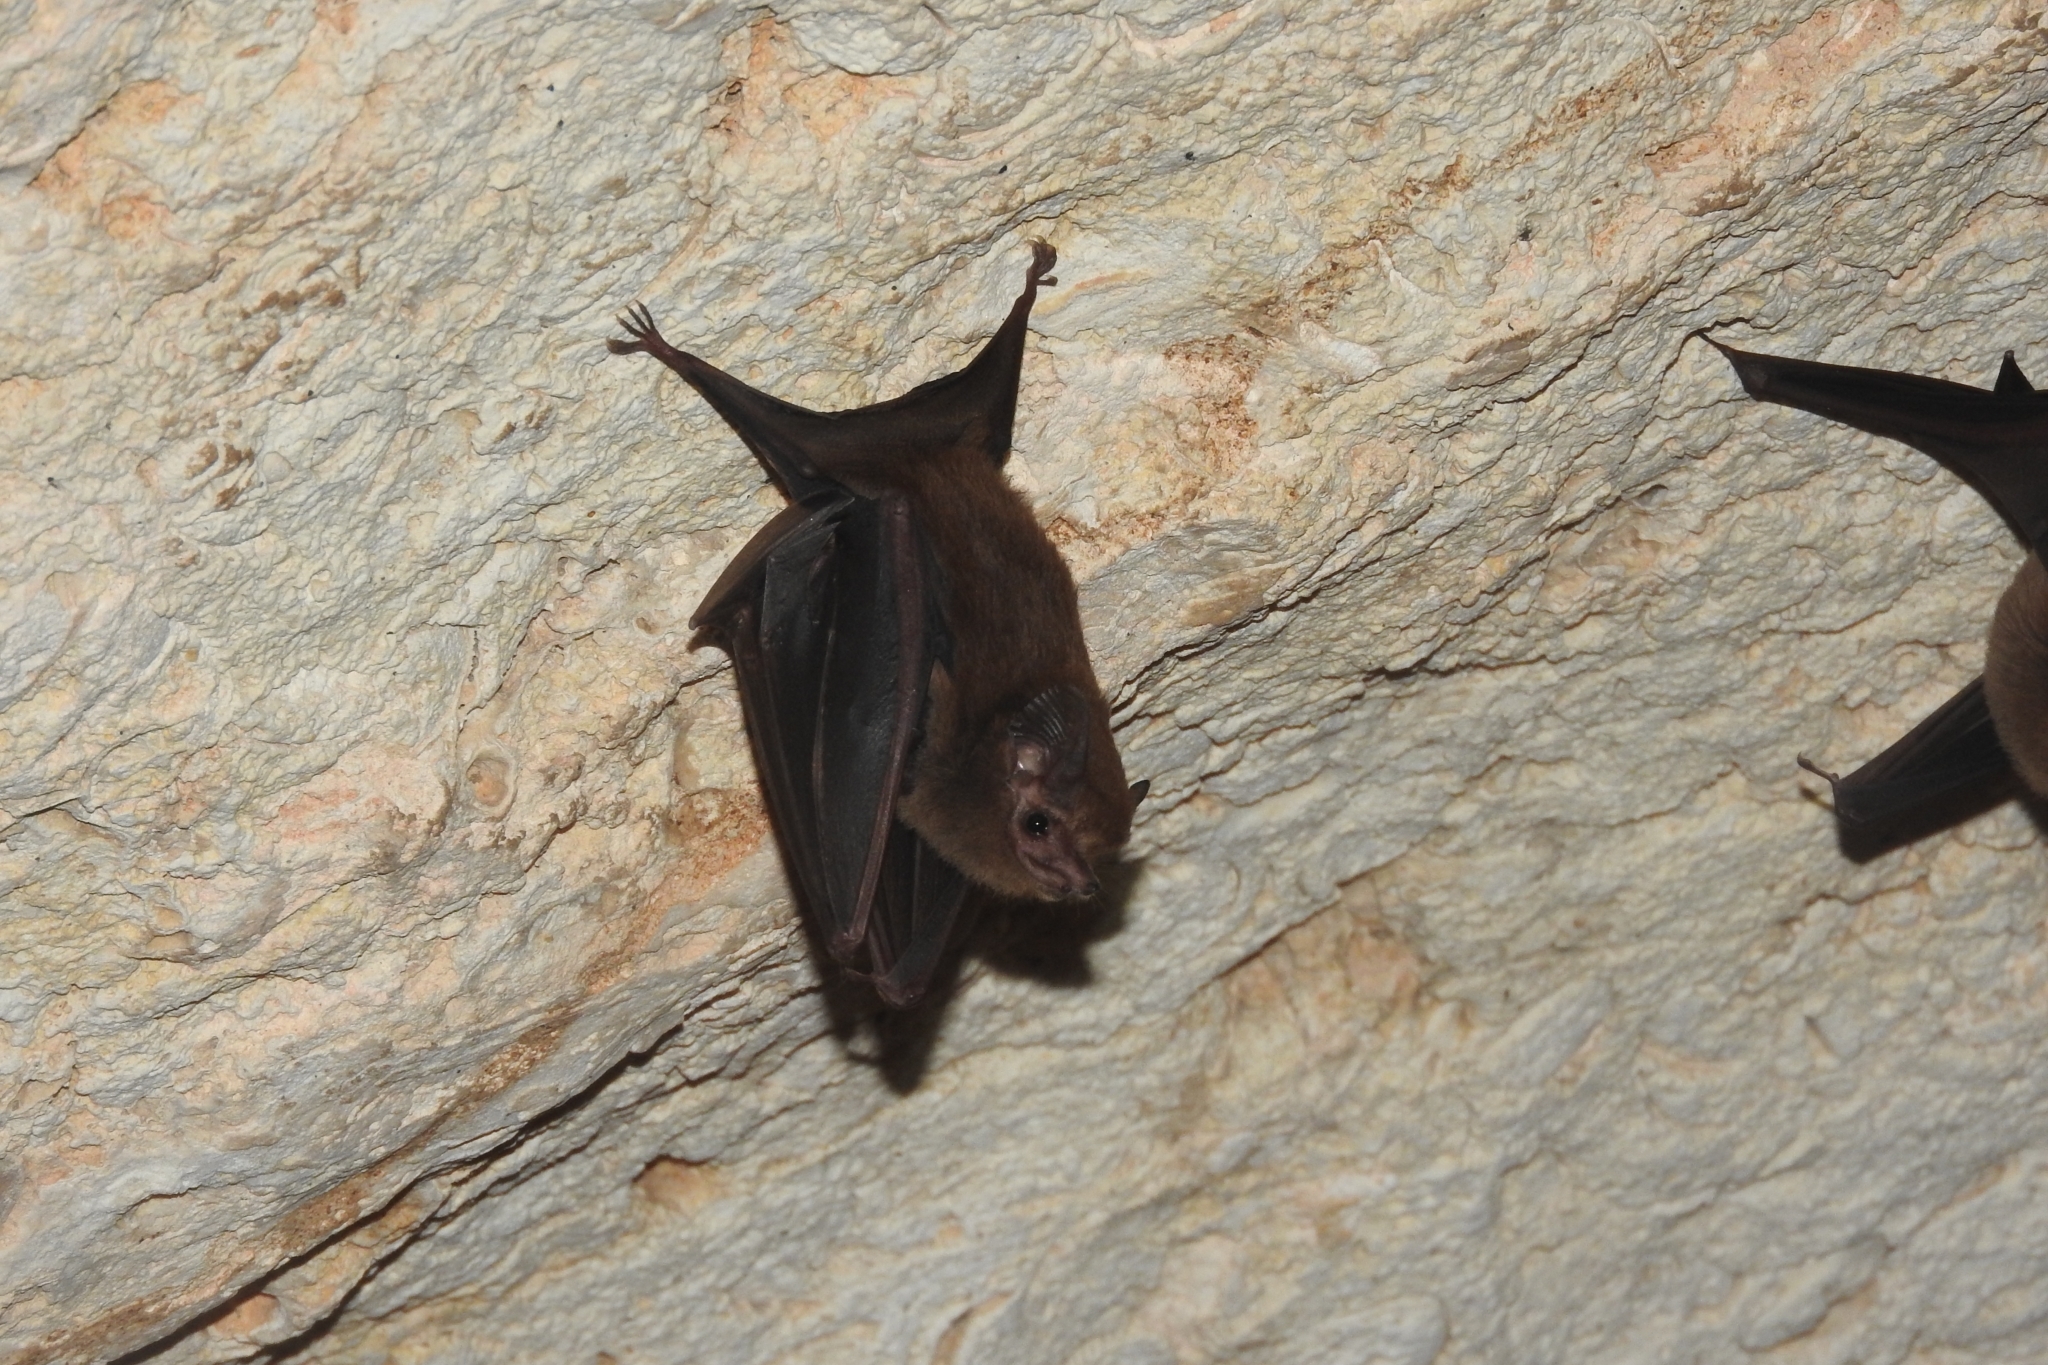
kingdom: Animalia
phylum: Chordata
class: Mammalia
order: Chiroptera
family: Emballonuridae
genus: Peropteryx
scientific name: Peropteryx macrotis
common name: Lesser dog-like bat
